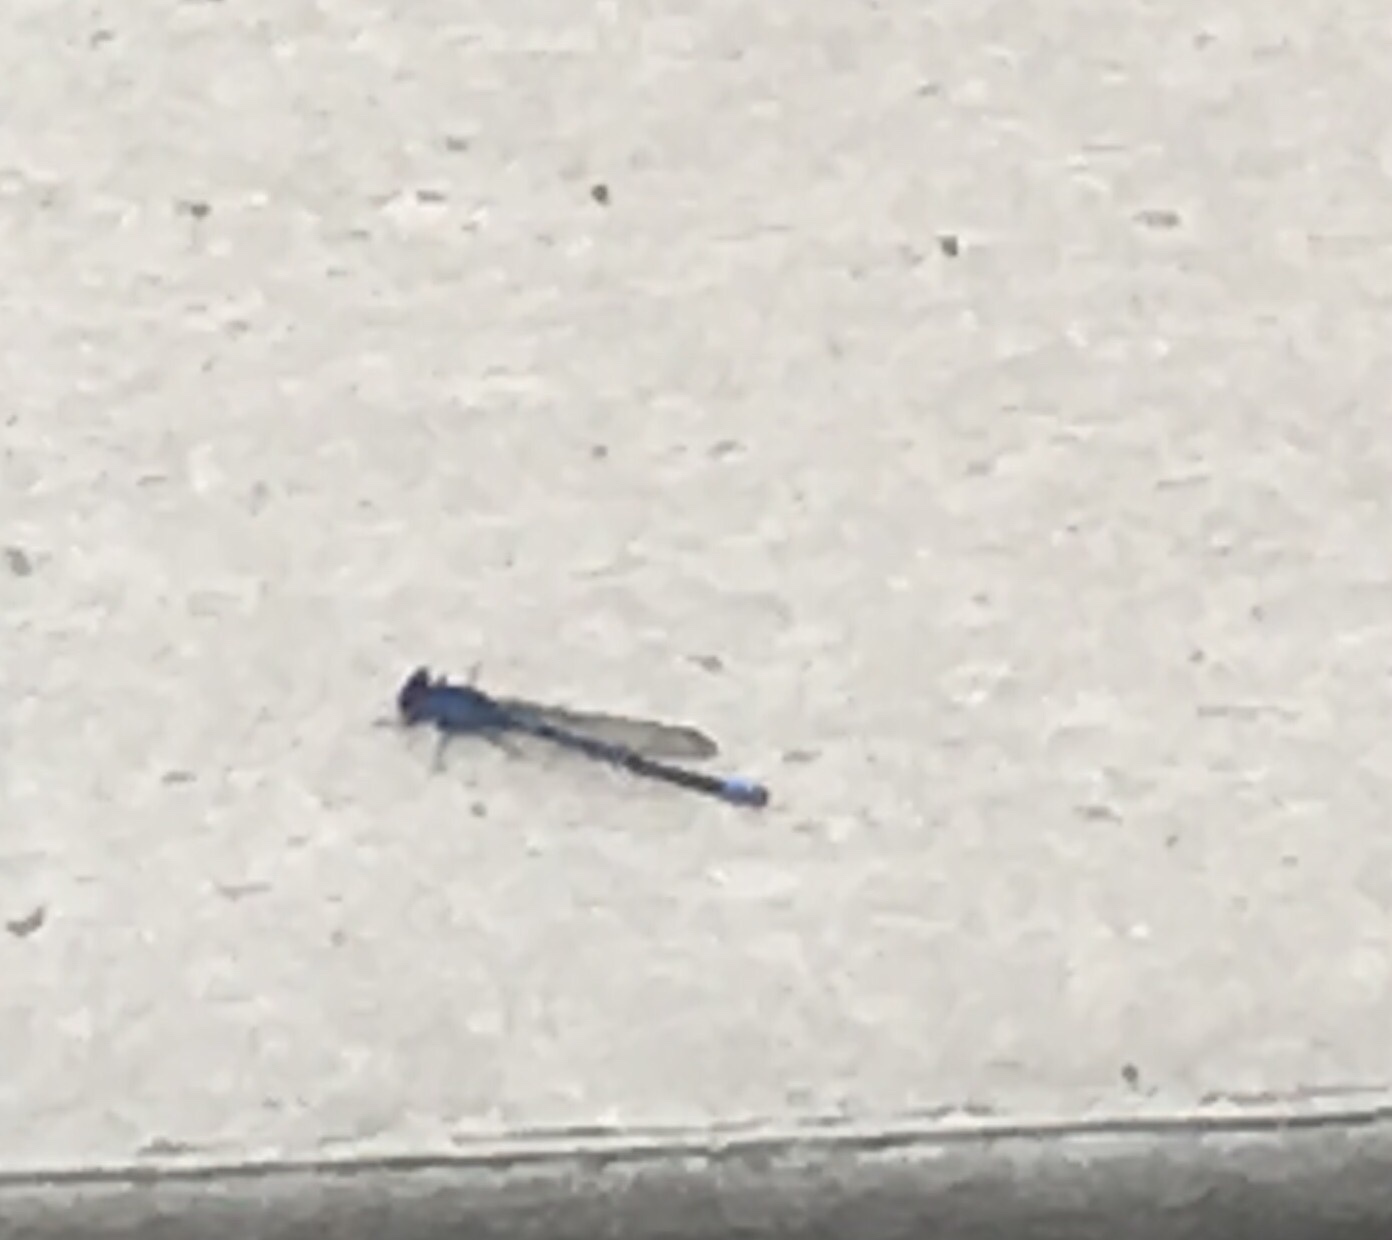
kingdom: Animalia
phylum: Arthropoda
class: Insecta
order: Odonata
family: Coenagrionidae
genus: Argia
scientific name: Argia vivida
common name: Vivid dancer
